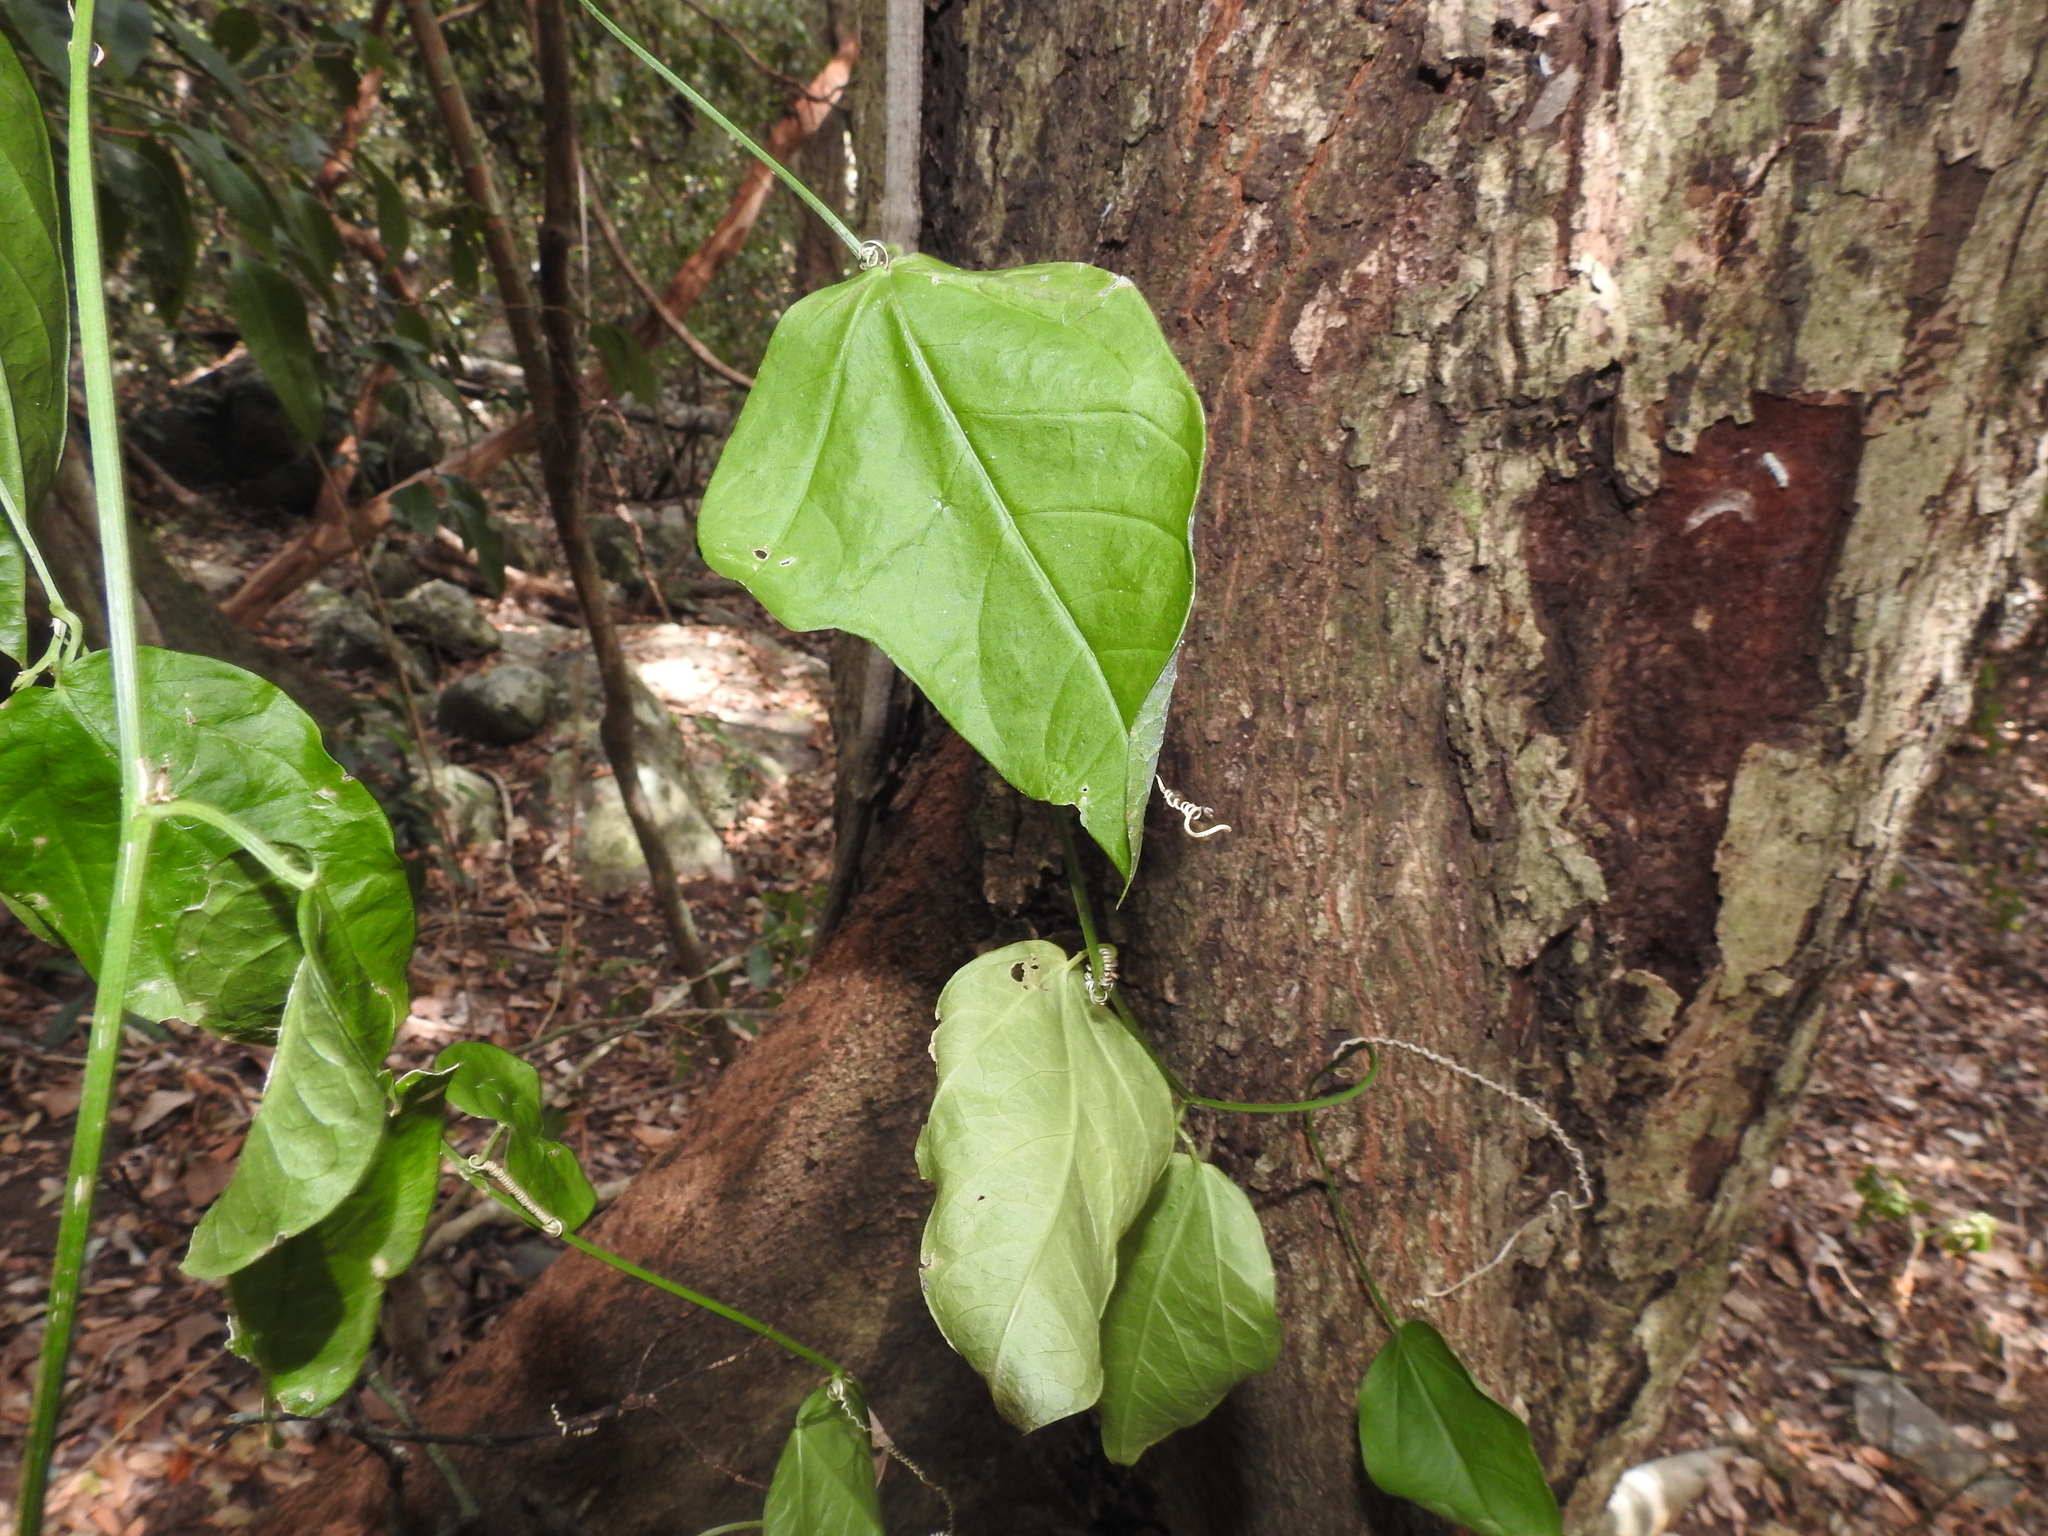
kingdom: Plantae
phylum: Tracheophyta
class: Magnoliopsida
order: Malpighiales
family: Passifloraceae
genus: Passiflora
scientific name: Passiflora pallida
